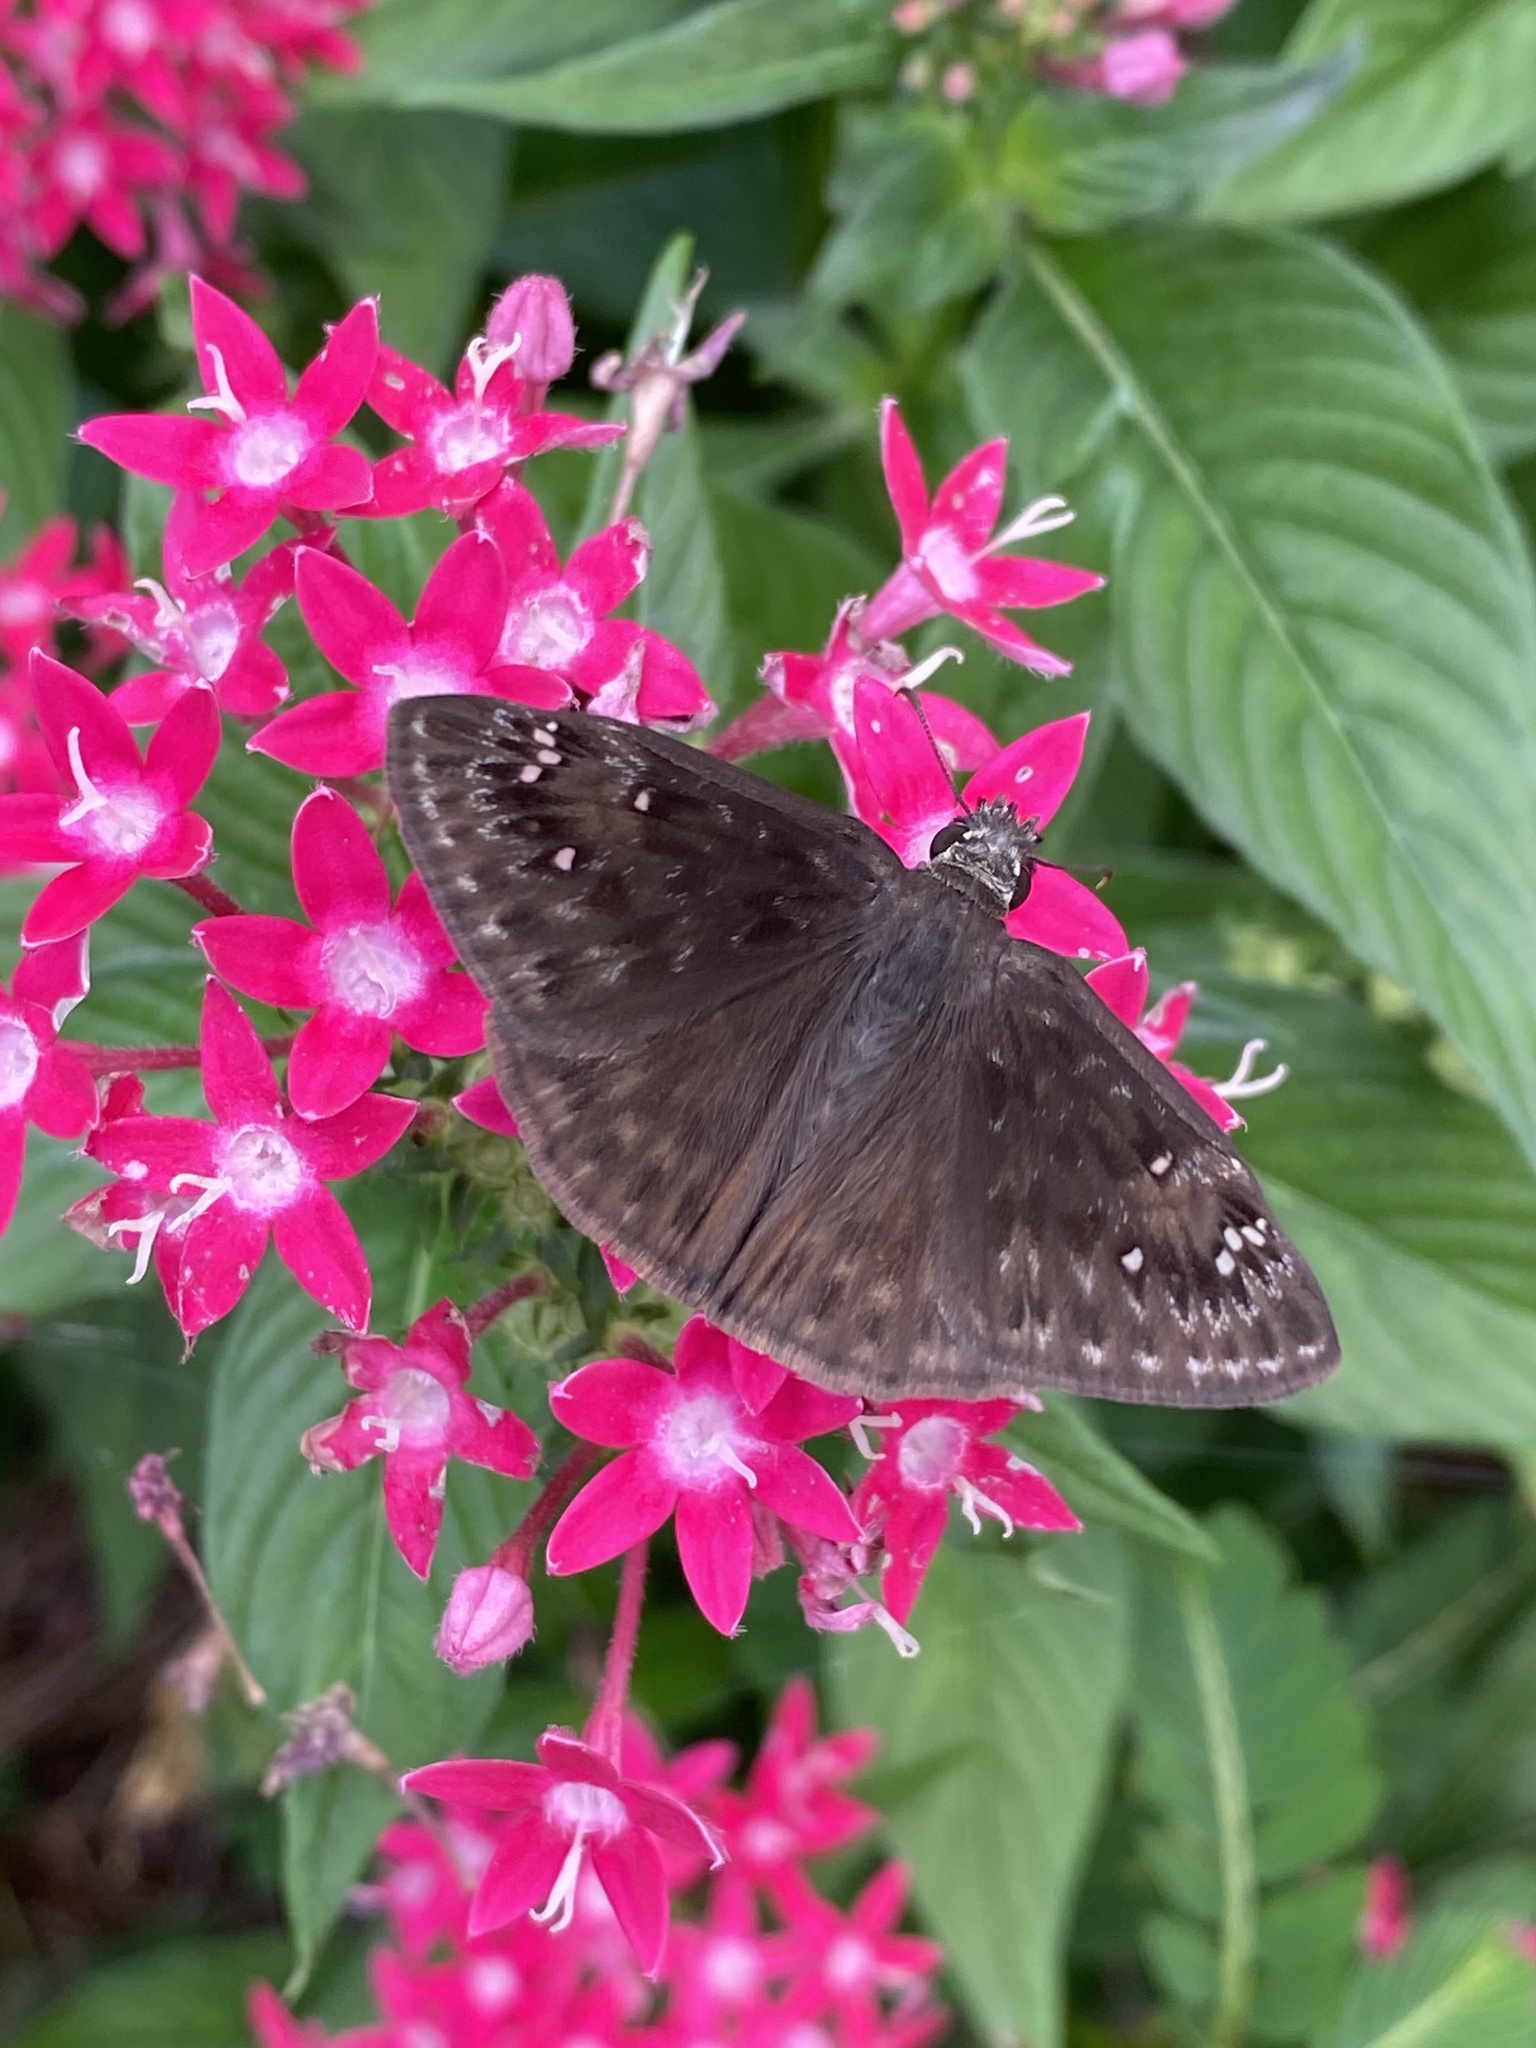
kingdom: Animalia
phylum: Arthropoda
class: Insecta
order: Lepidoptera
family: Hesperiidae
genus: Erynnis
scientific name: Erynnis horatius
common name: Horace's duskywing
